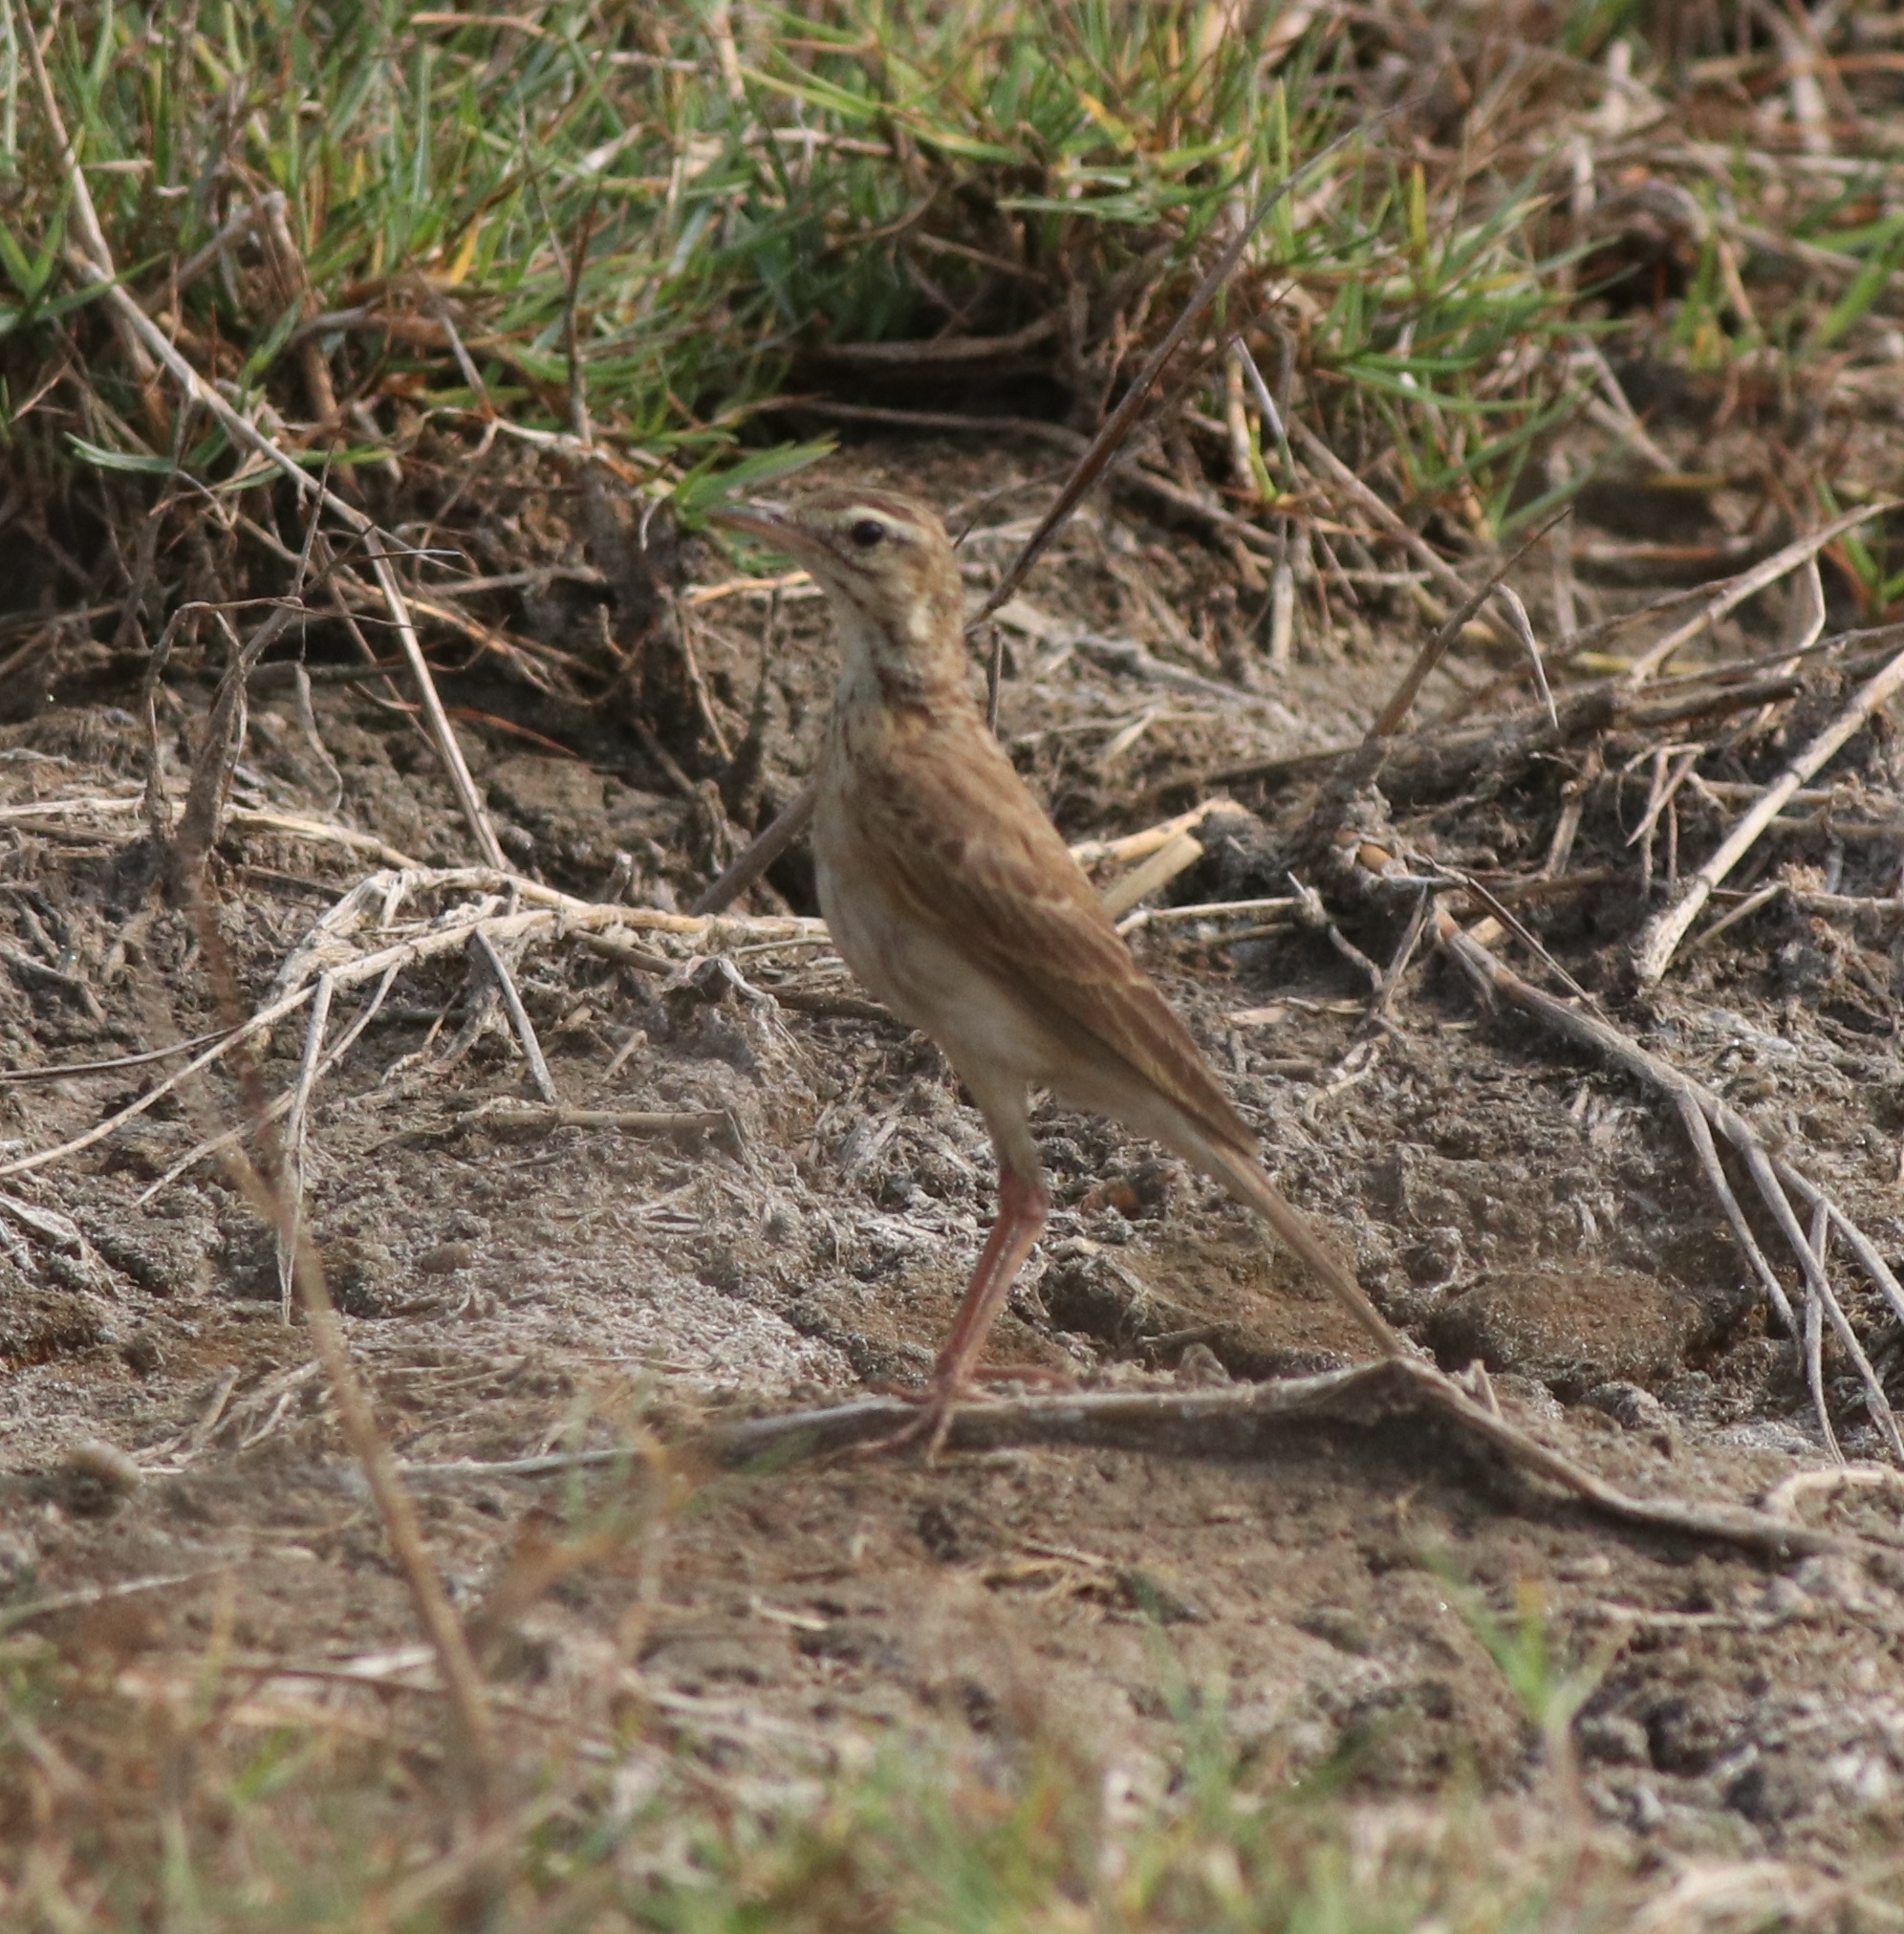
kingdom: Animalia
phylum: Chordata
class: Aves
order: Passeriformes
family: Motacillidae
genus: Anthus
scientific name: Anthus rufulus
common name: Paddyfield pipit
